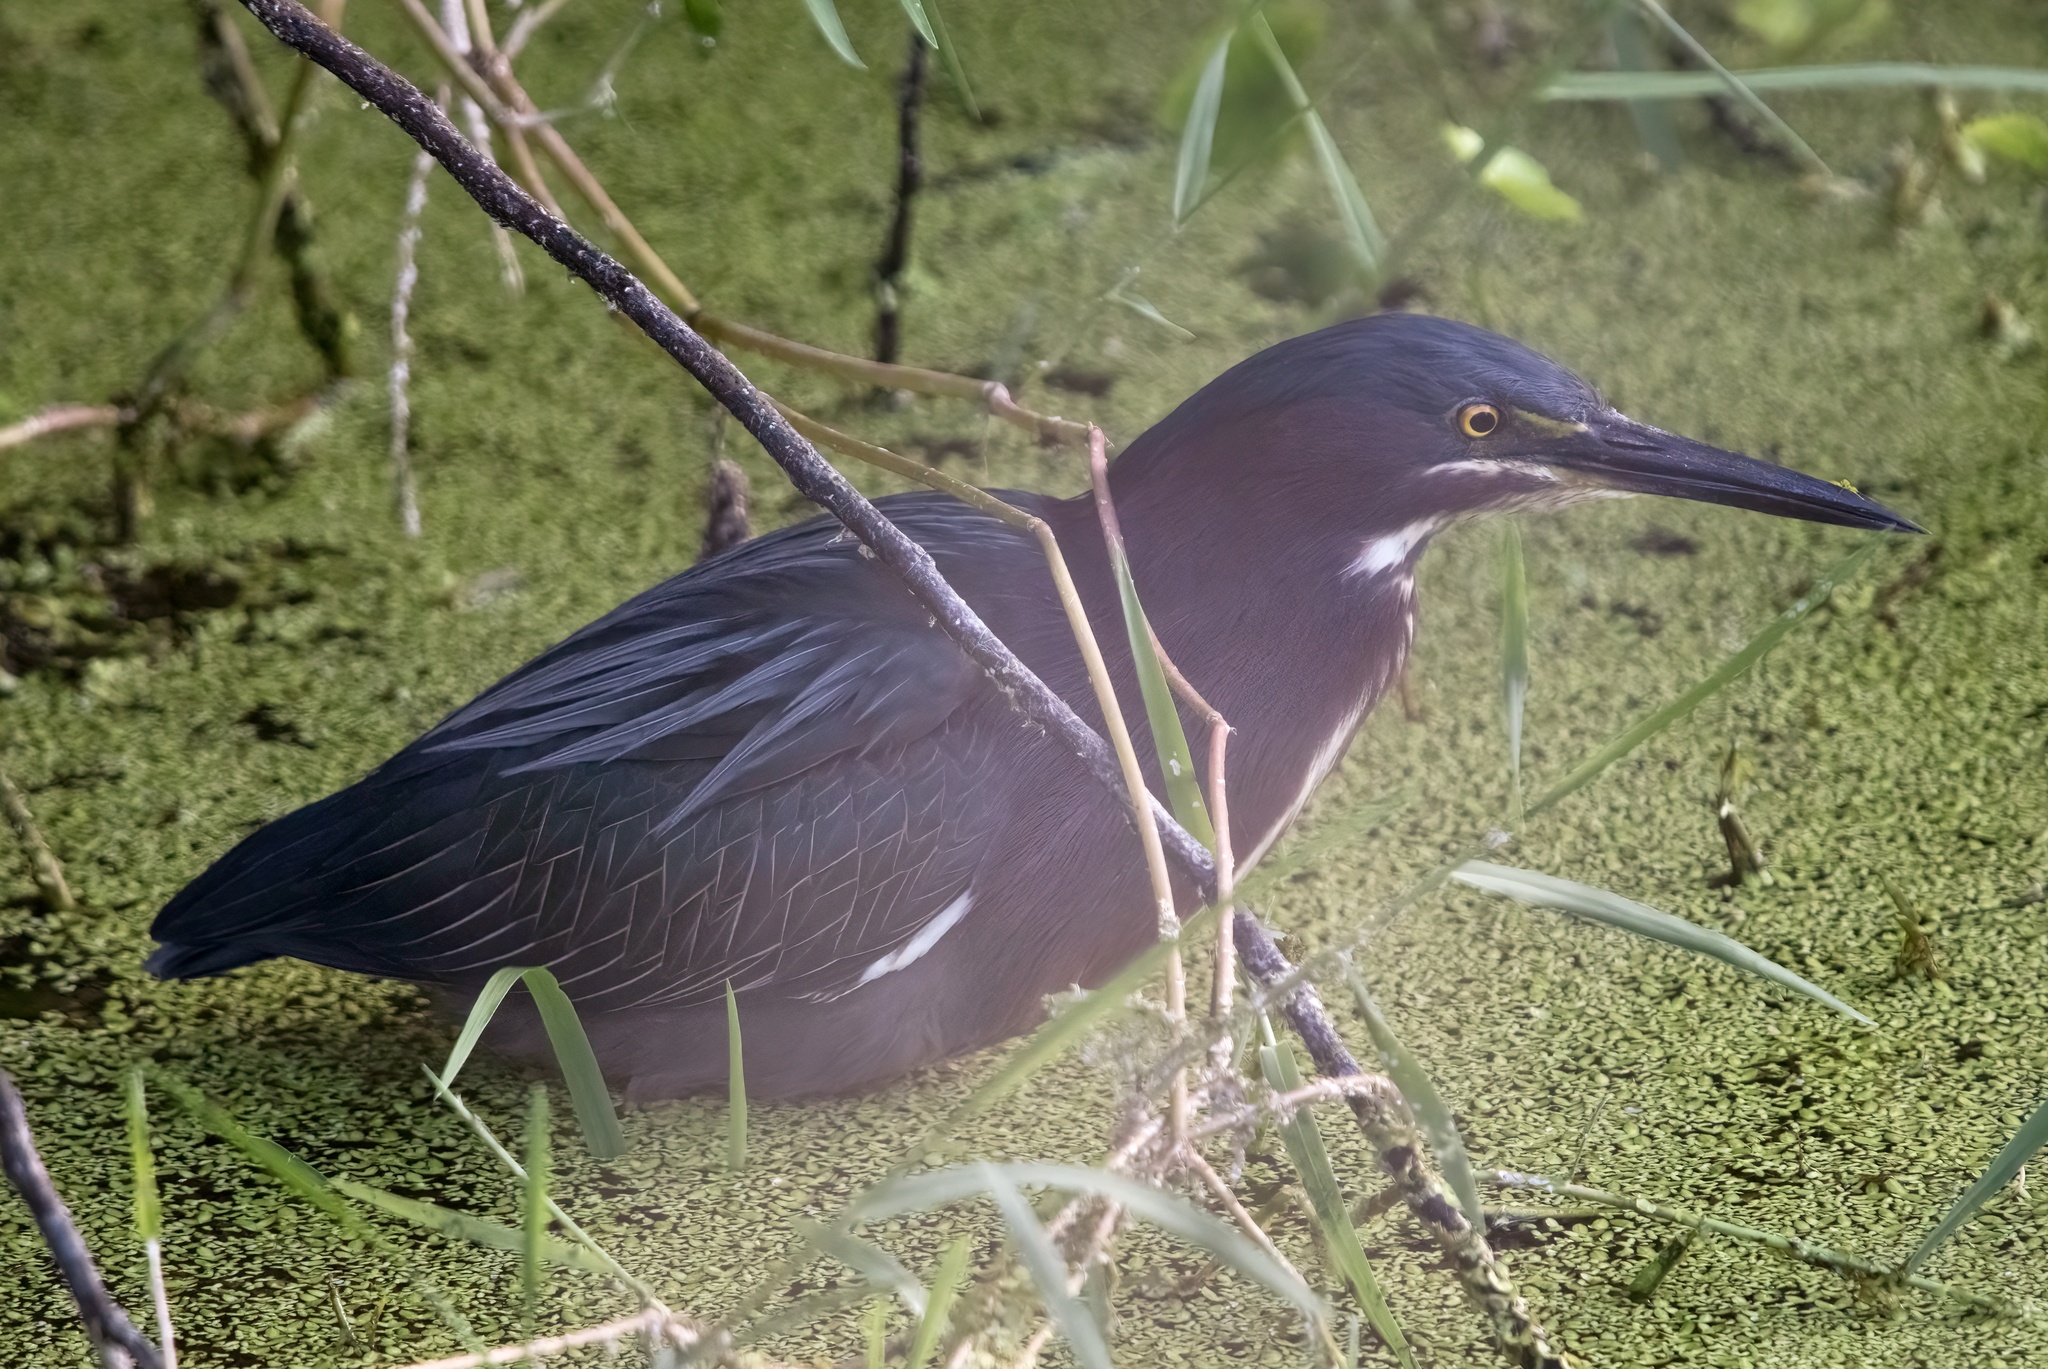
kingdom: Animalia
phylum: Chordata
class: Aves
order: Pelecaniformes
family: Ardeidae
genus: Butorides
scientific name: Butorides virescens
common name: Green heron
